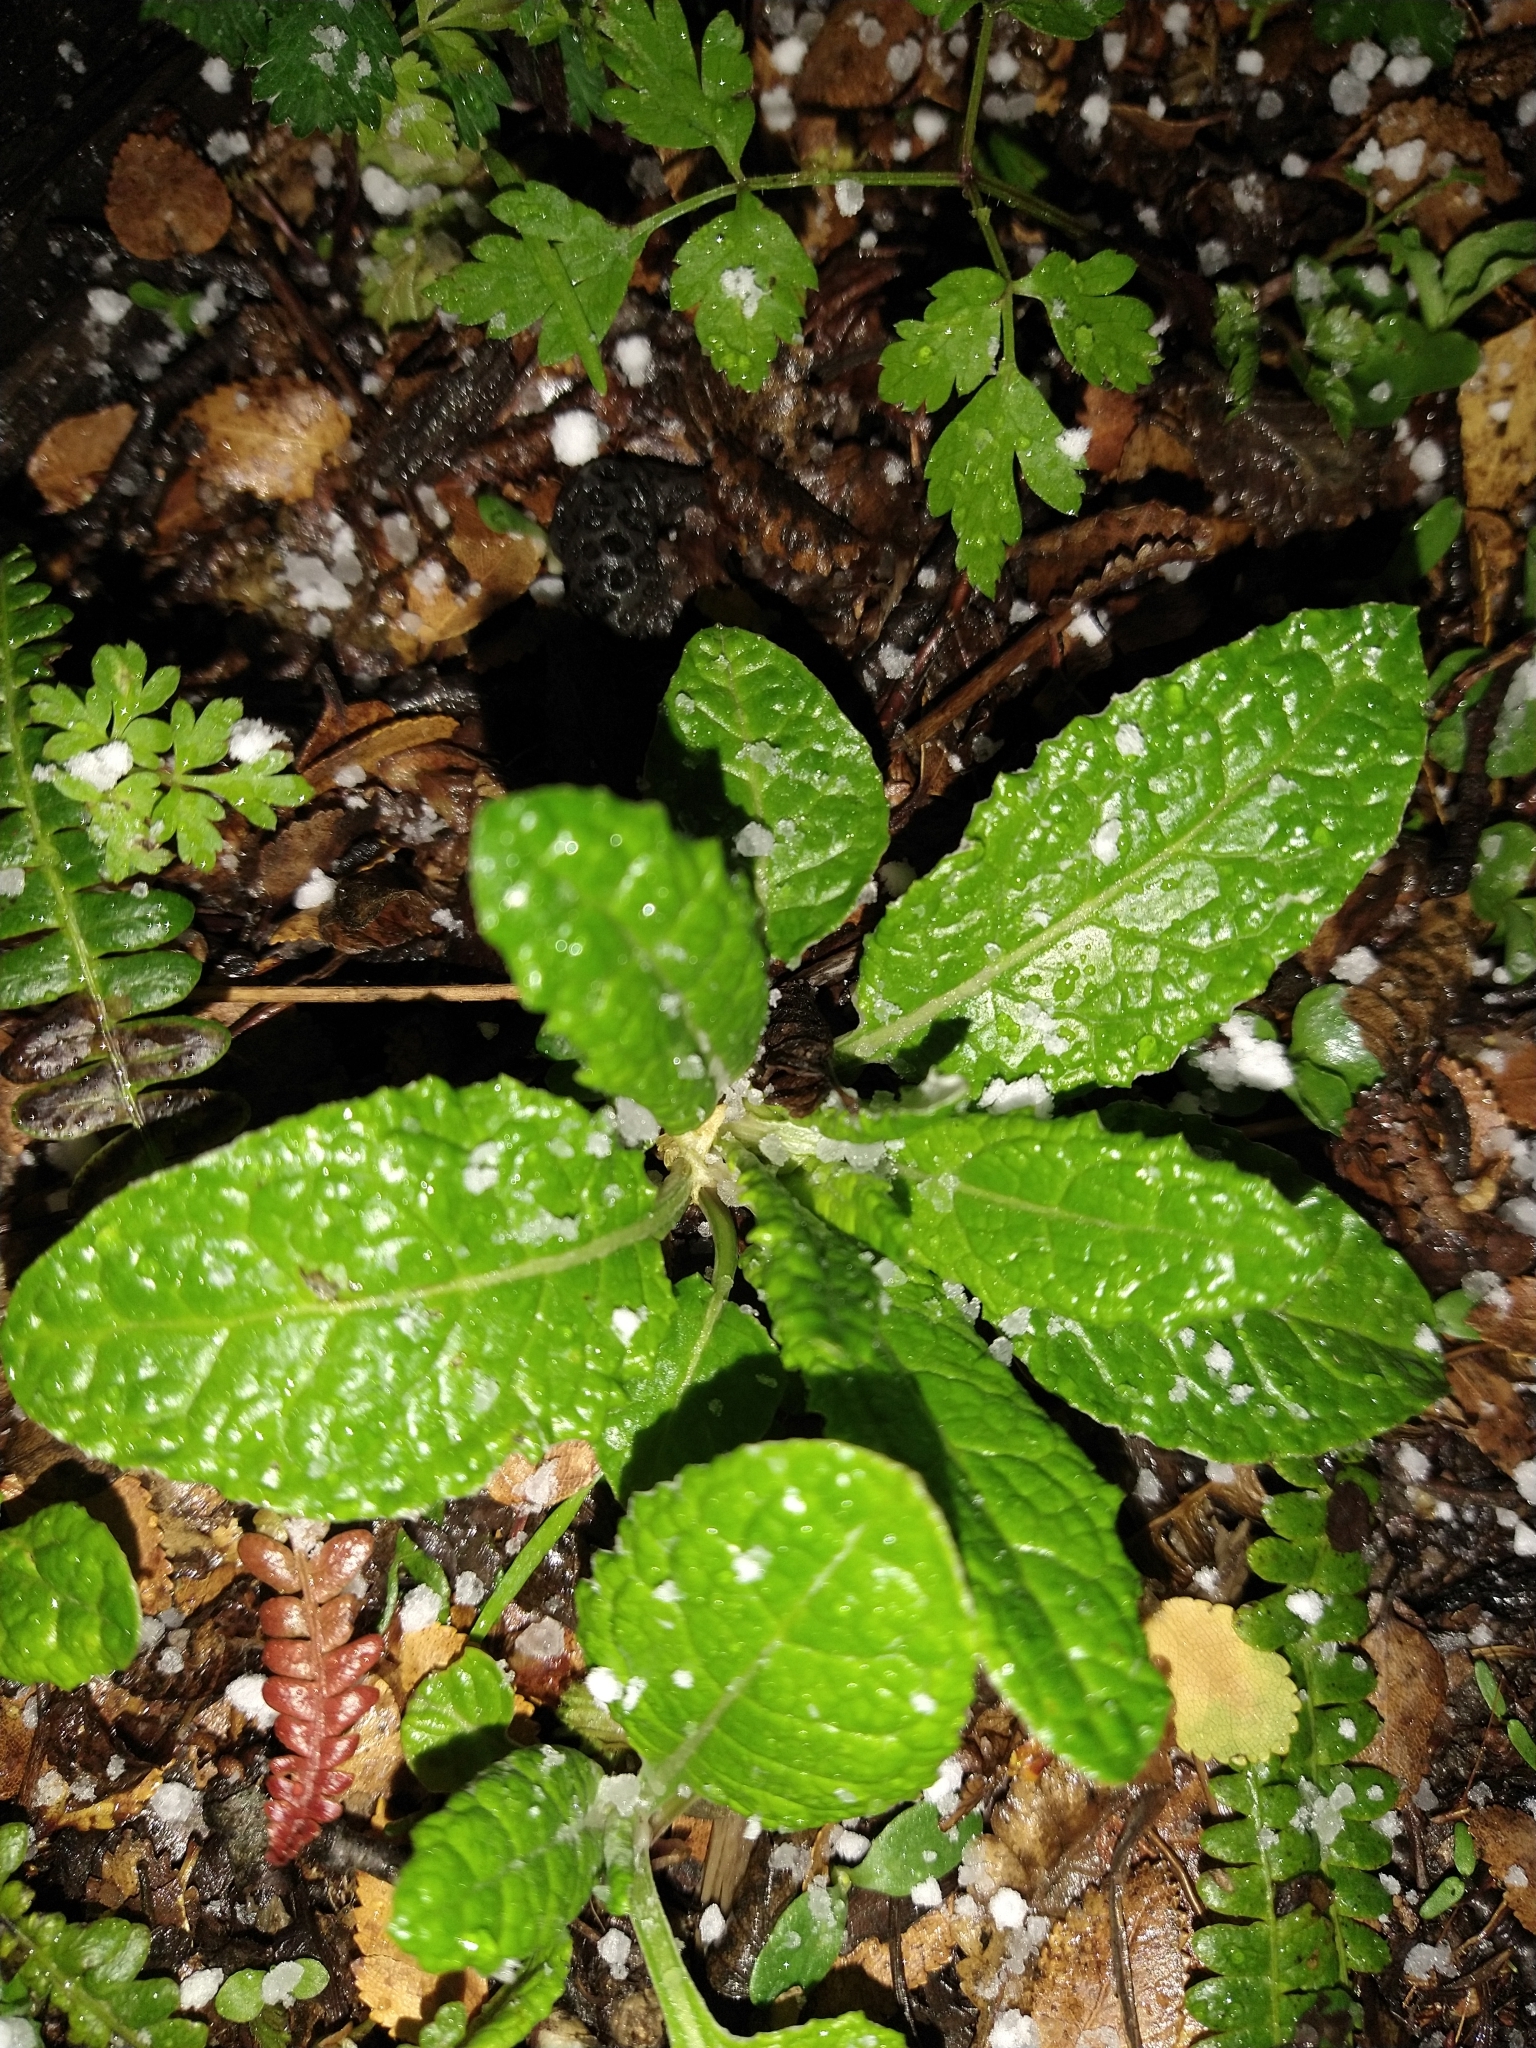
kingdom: Plantae
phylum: Tracheophyta
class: Magnoliopsida
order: Asterales
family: Asteraceae
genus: Adenocaulon
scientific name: Adenocaulon chilense
